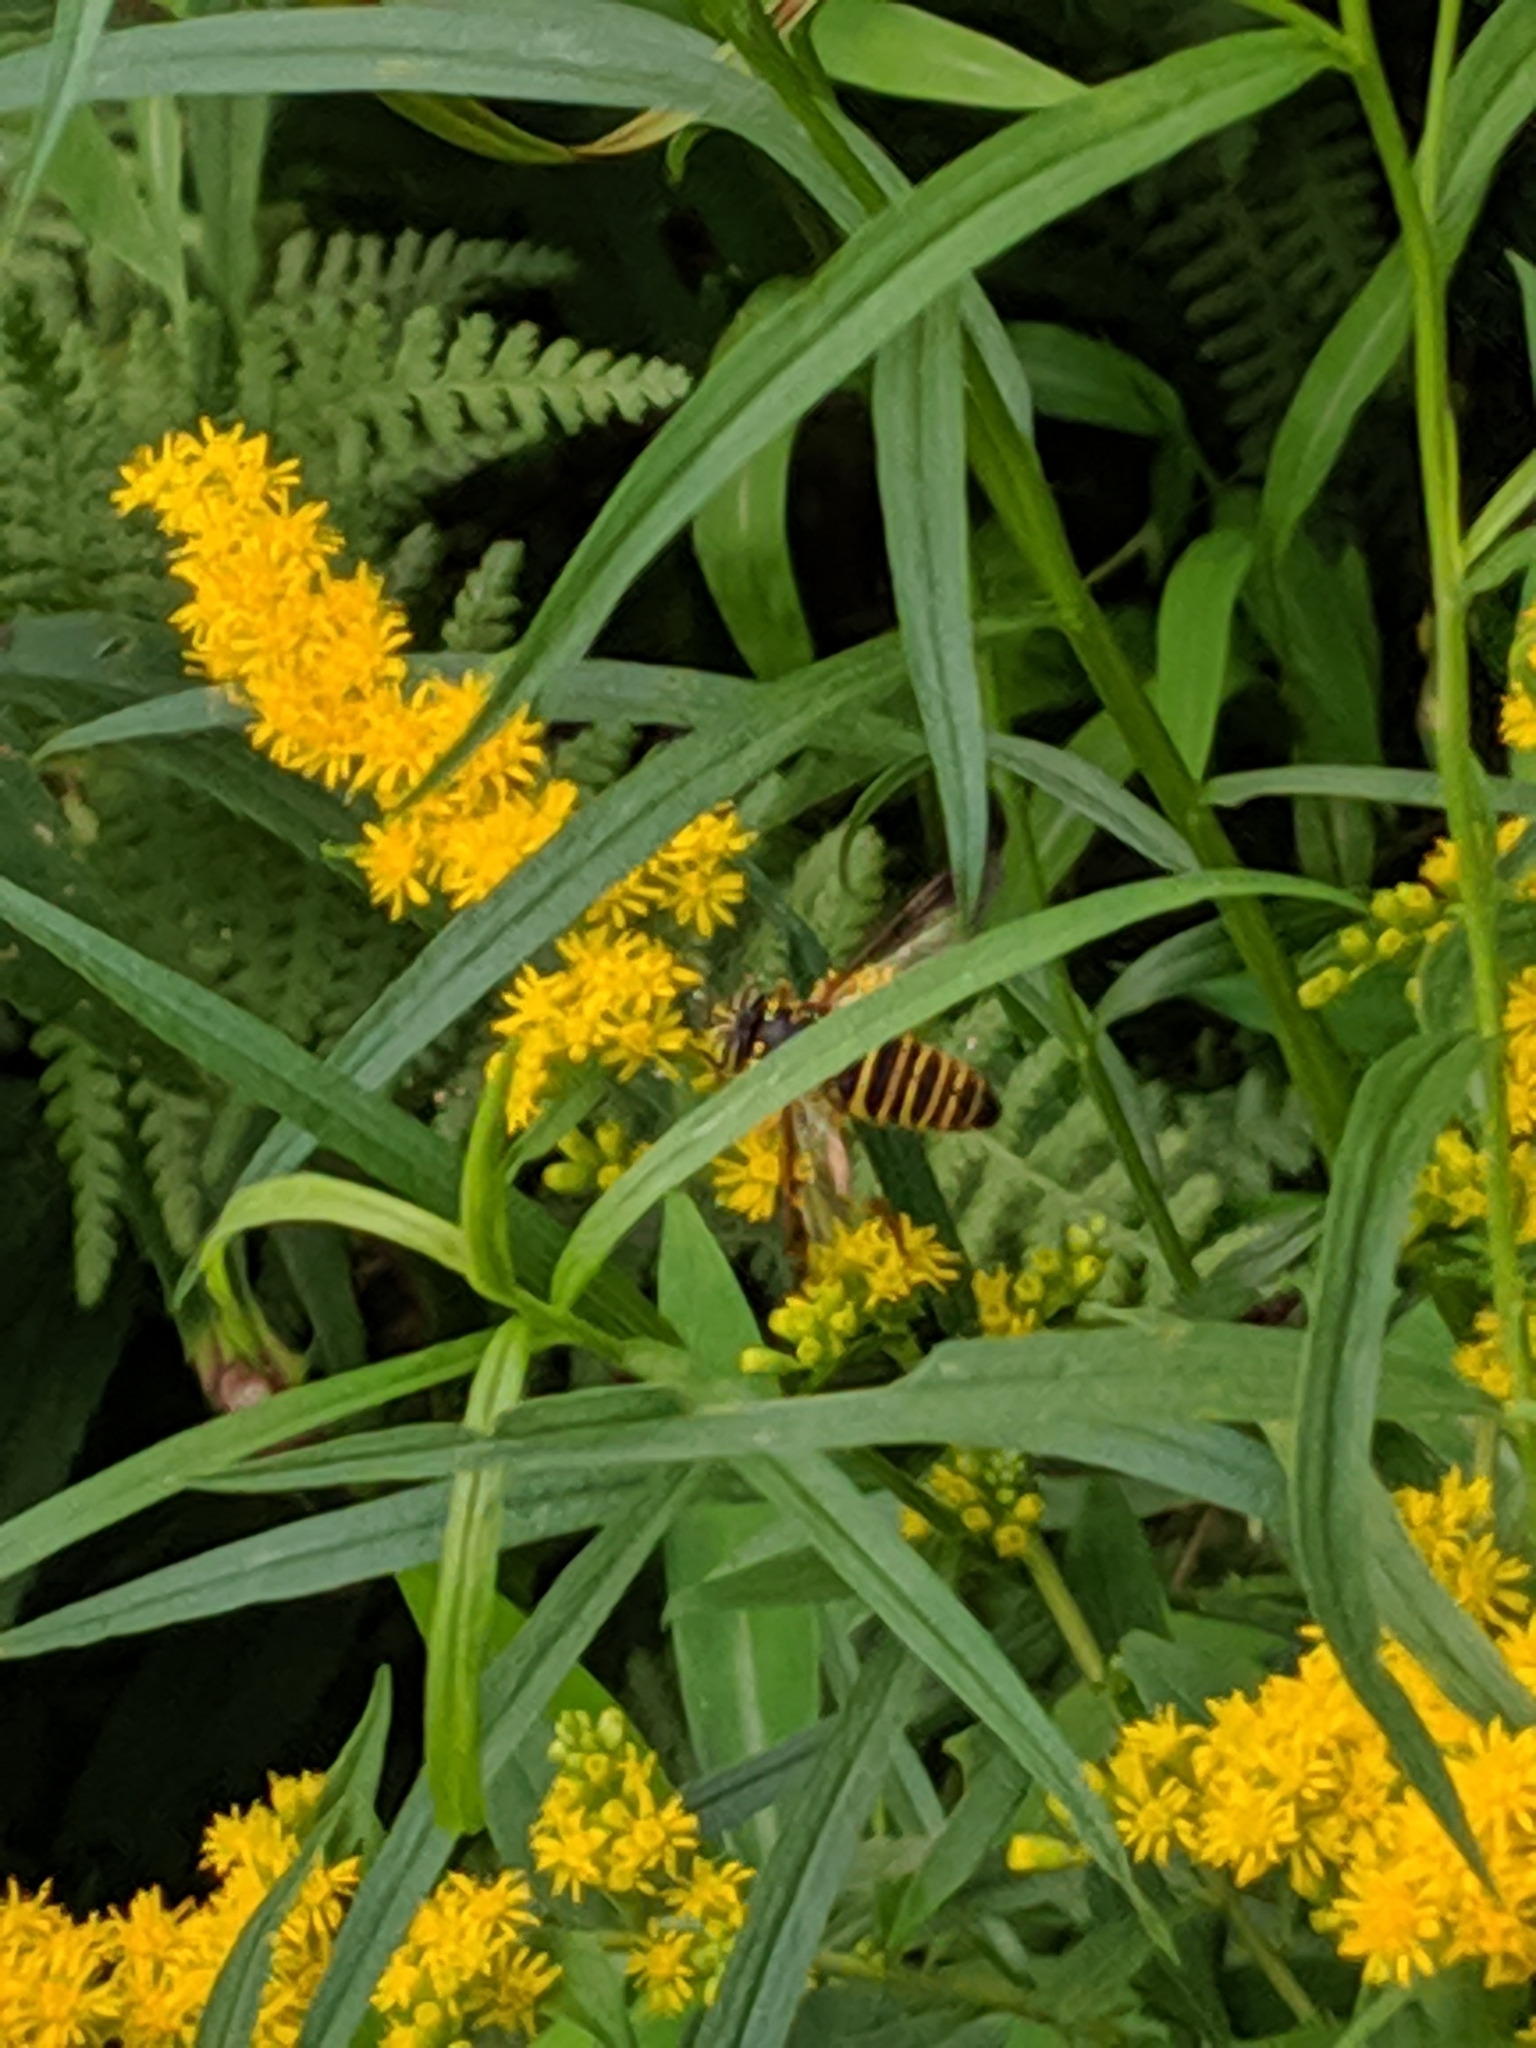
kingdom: Animalia
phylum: Arthropoda
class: Insecta
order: Diptera
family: Syrphidae
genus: Spilomyia
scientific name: Spilomyia longicornis
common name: Eastern hornet fly
